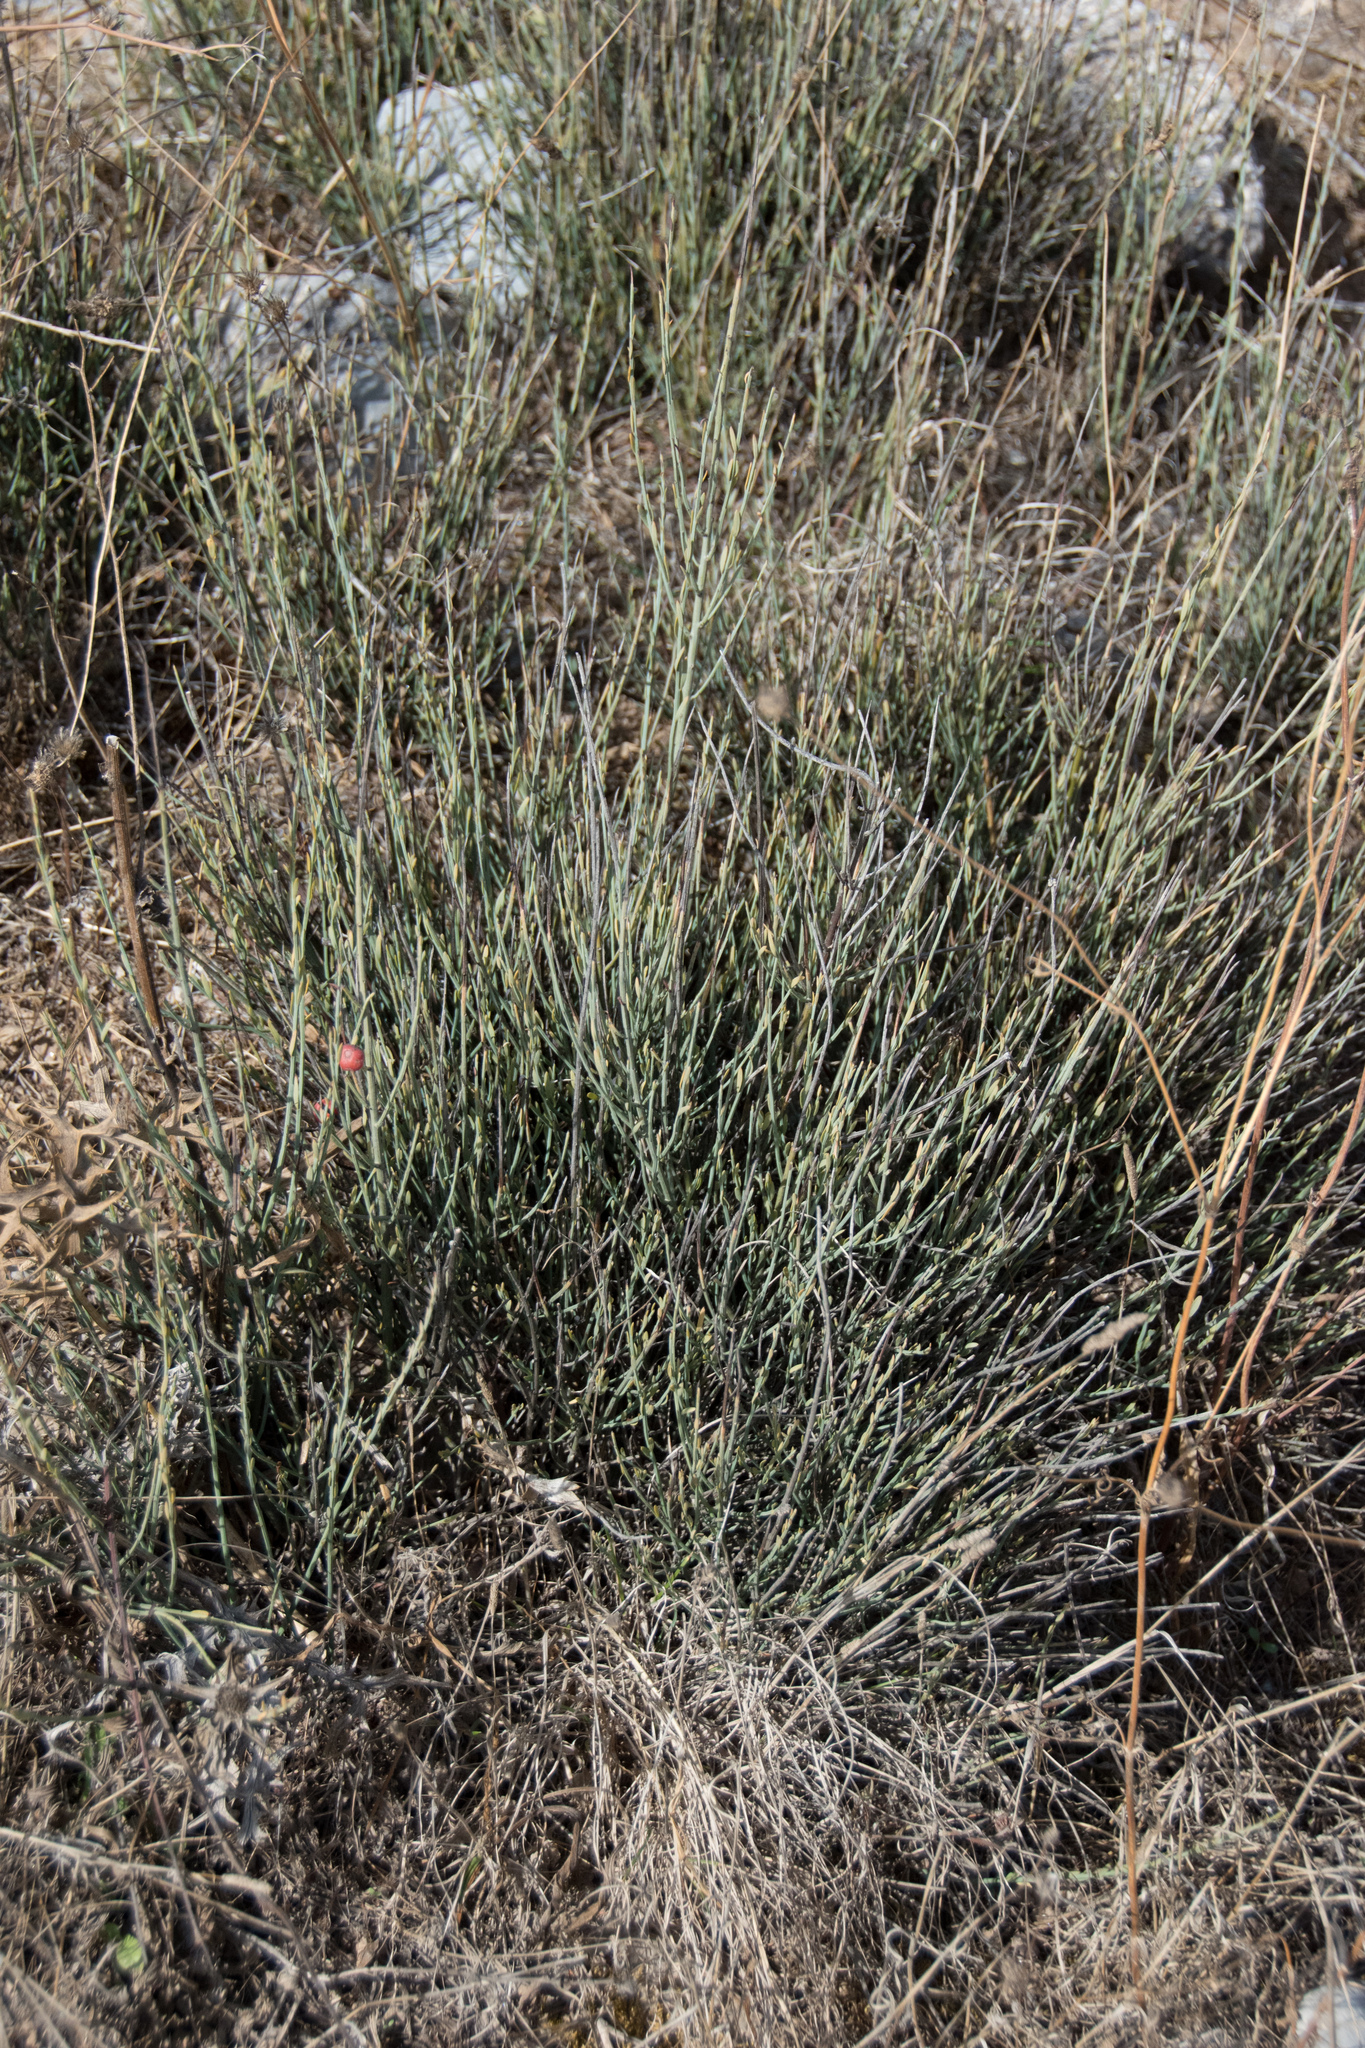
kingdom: Plantae
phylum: Tracheophyta
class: Magnoliopsida
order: Santalales
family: Santalaceae
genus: Osyris
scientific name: Osyris alba
